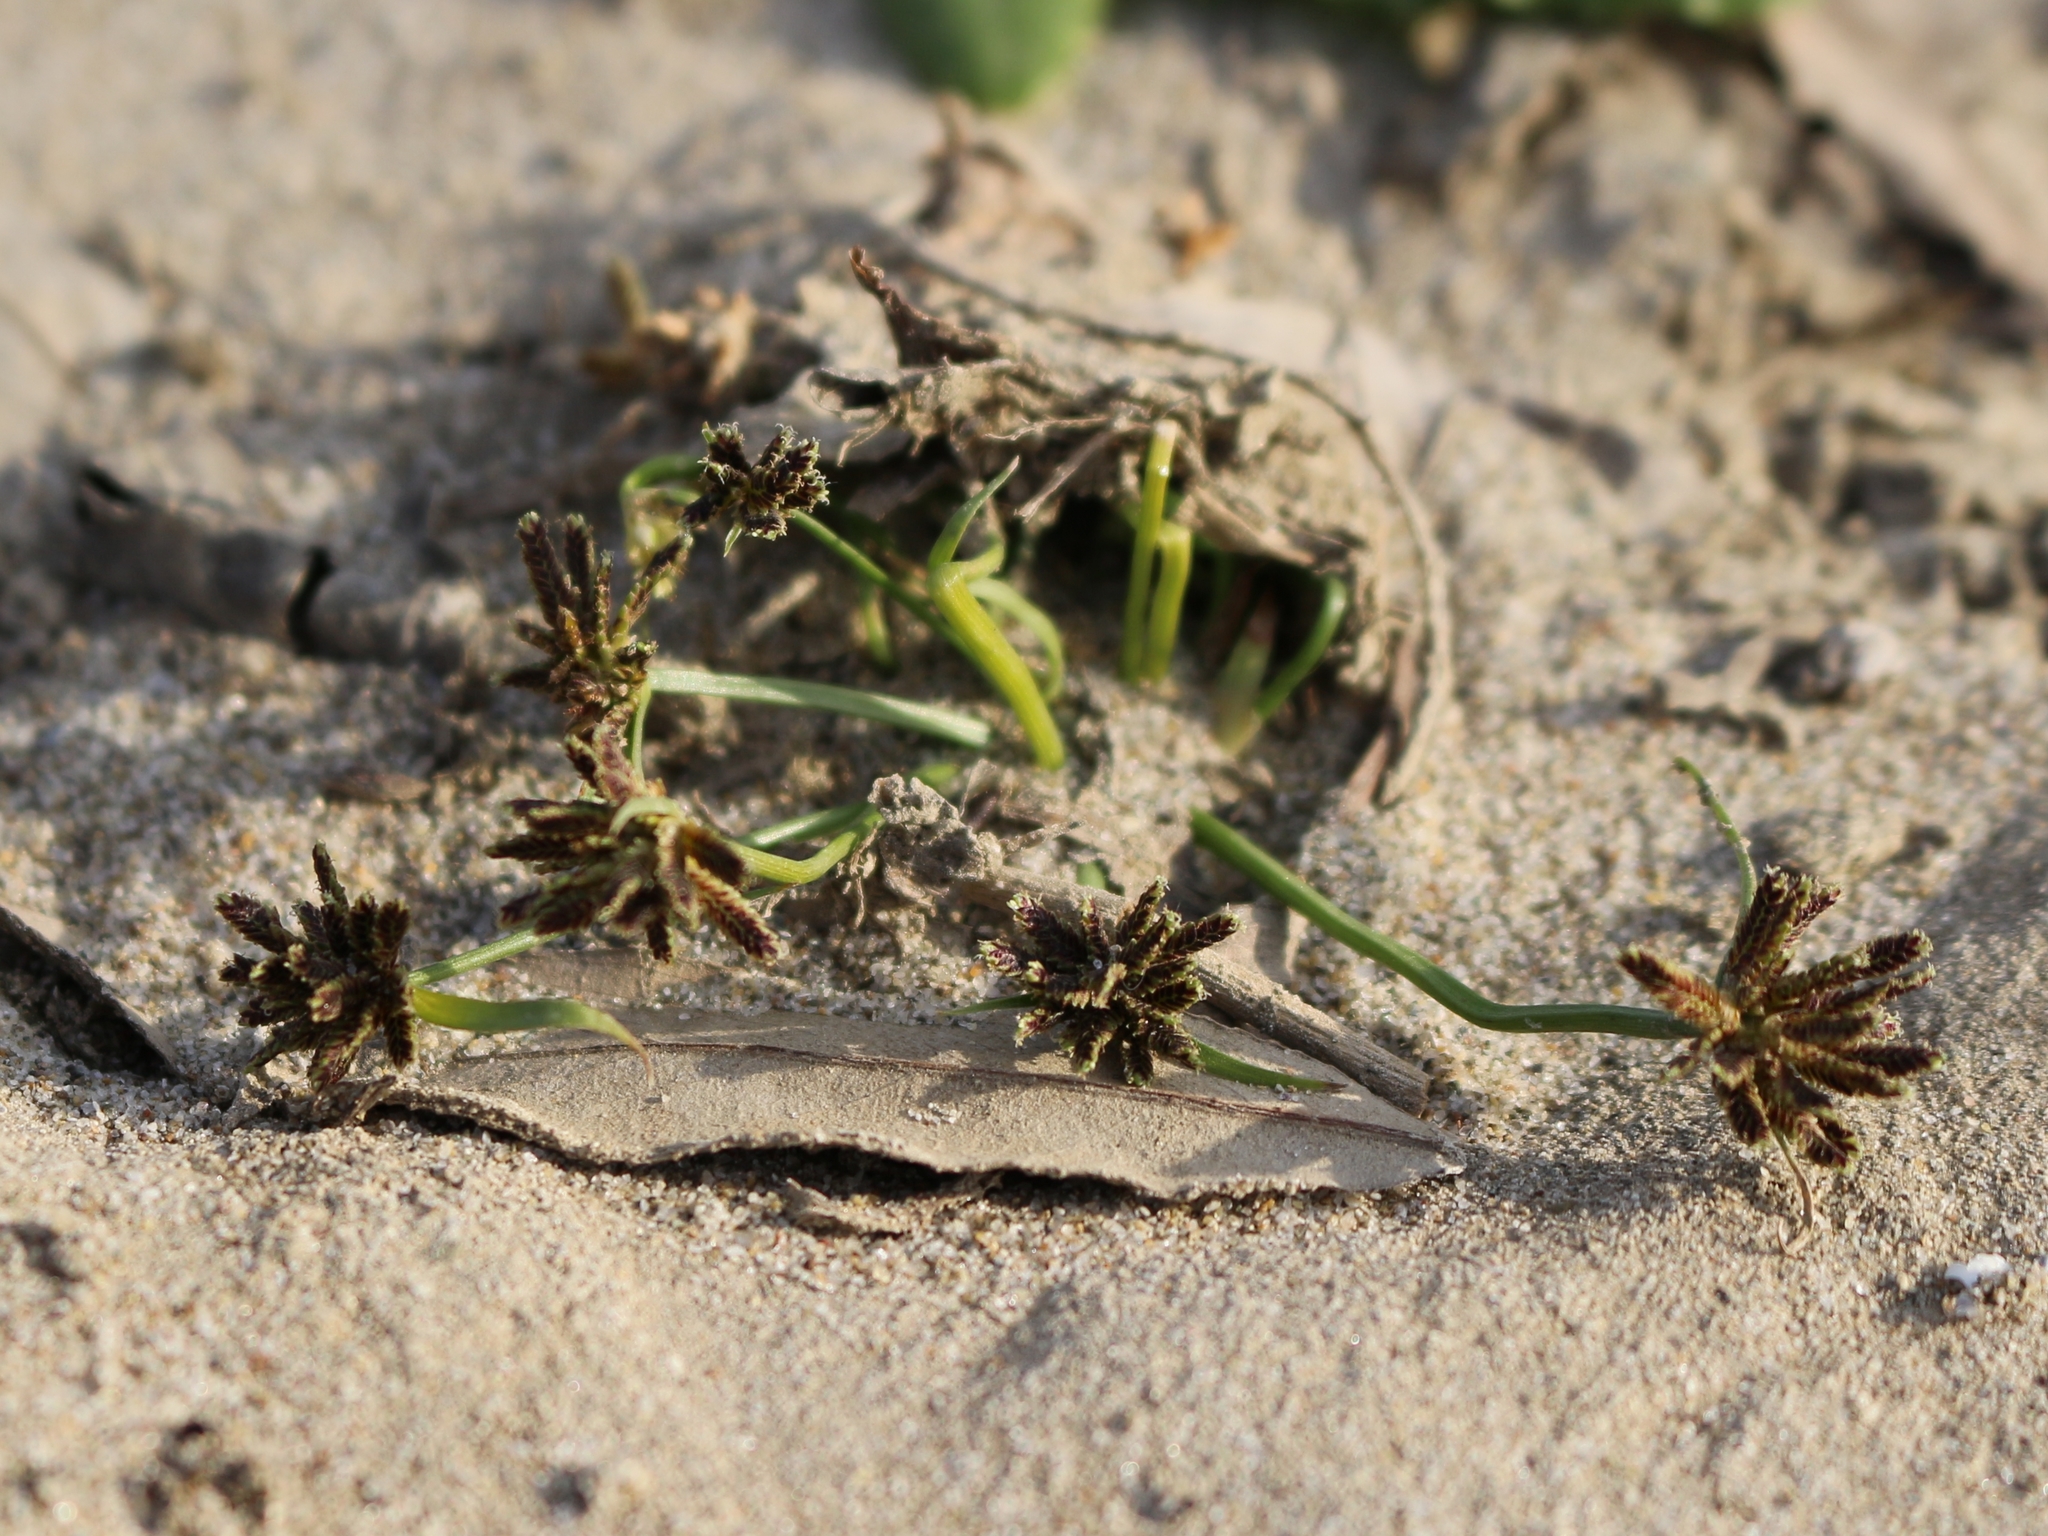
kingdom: Plantae
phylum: Tracheophyta
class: Liliopsida
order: Poales
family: Cyperaceae
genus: Cyperus
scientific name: Cyperus fuscus
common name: Brown galingale
